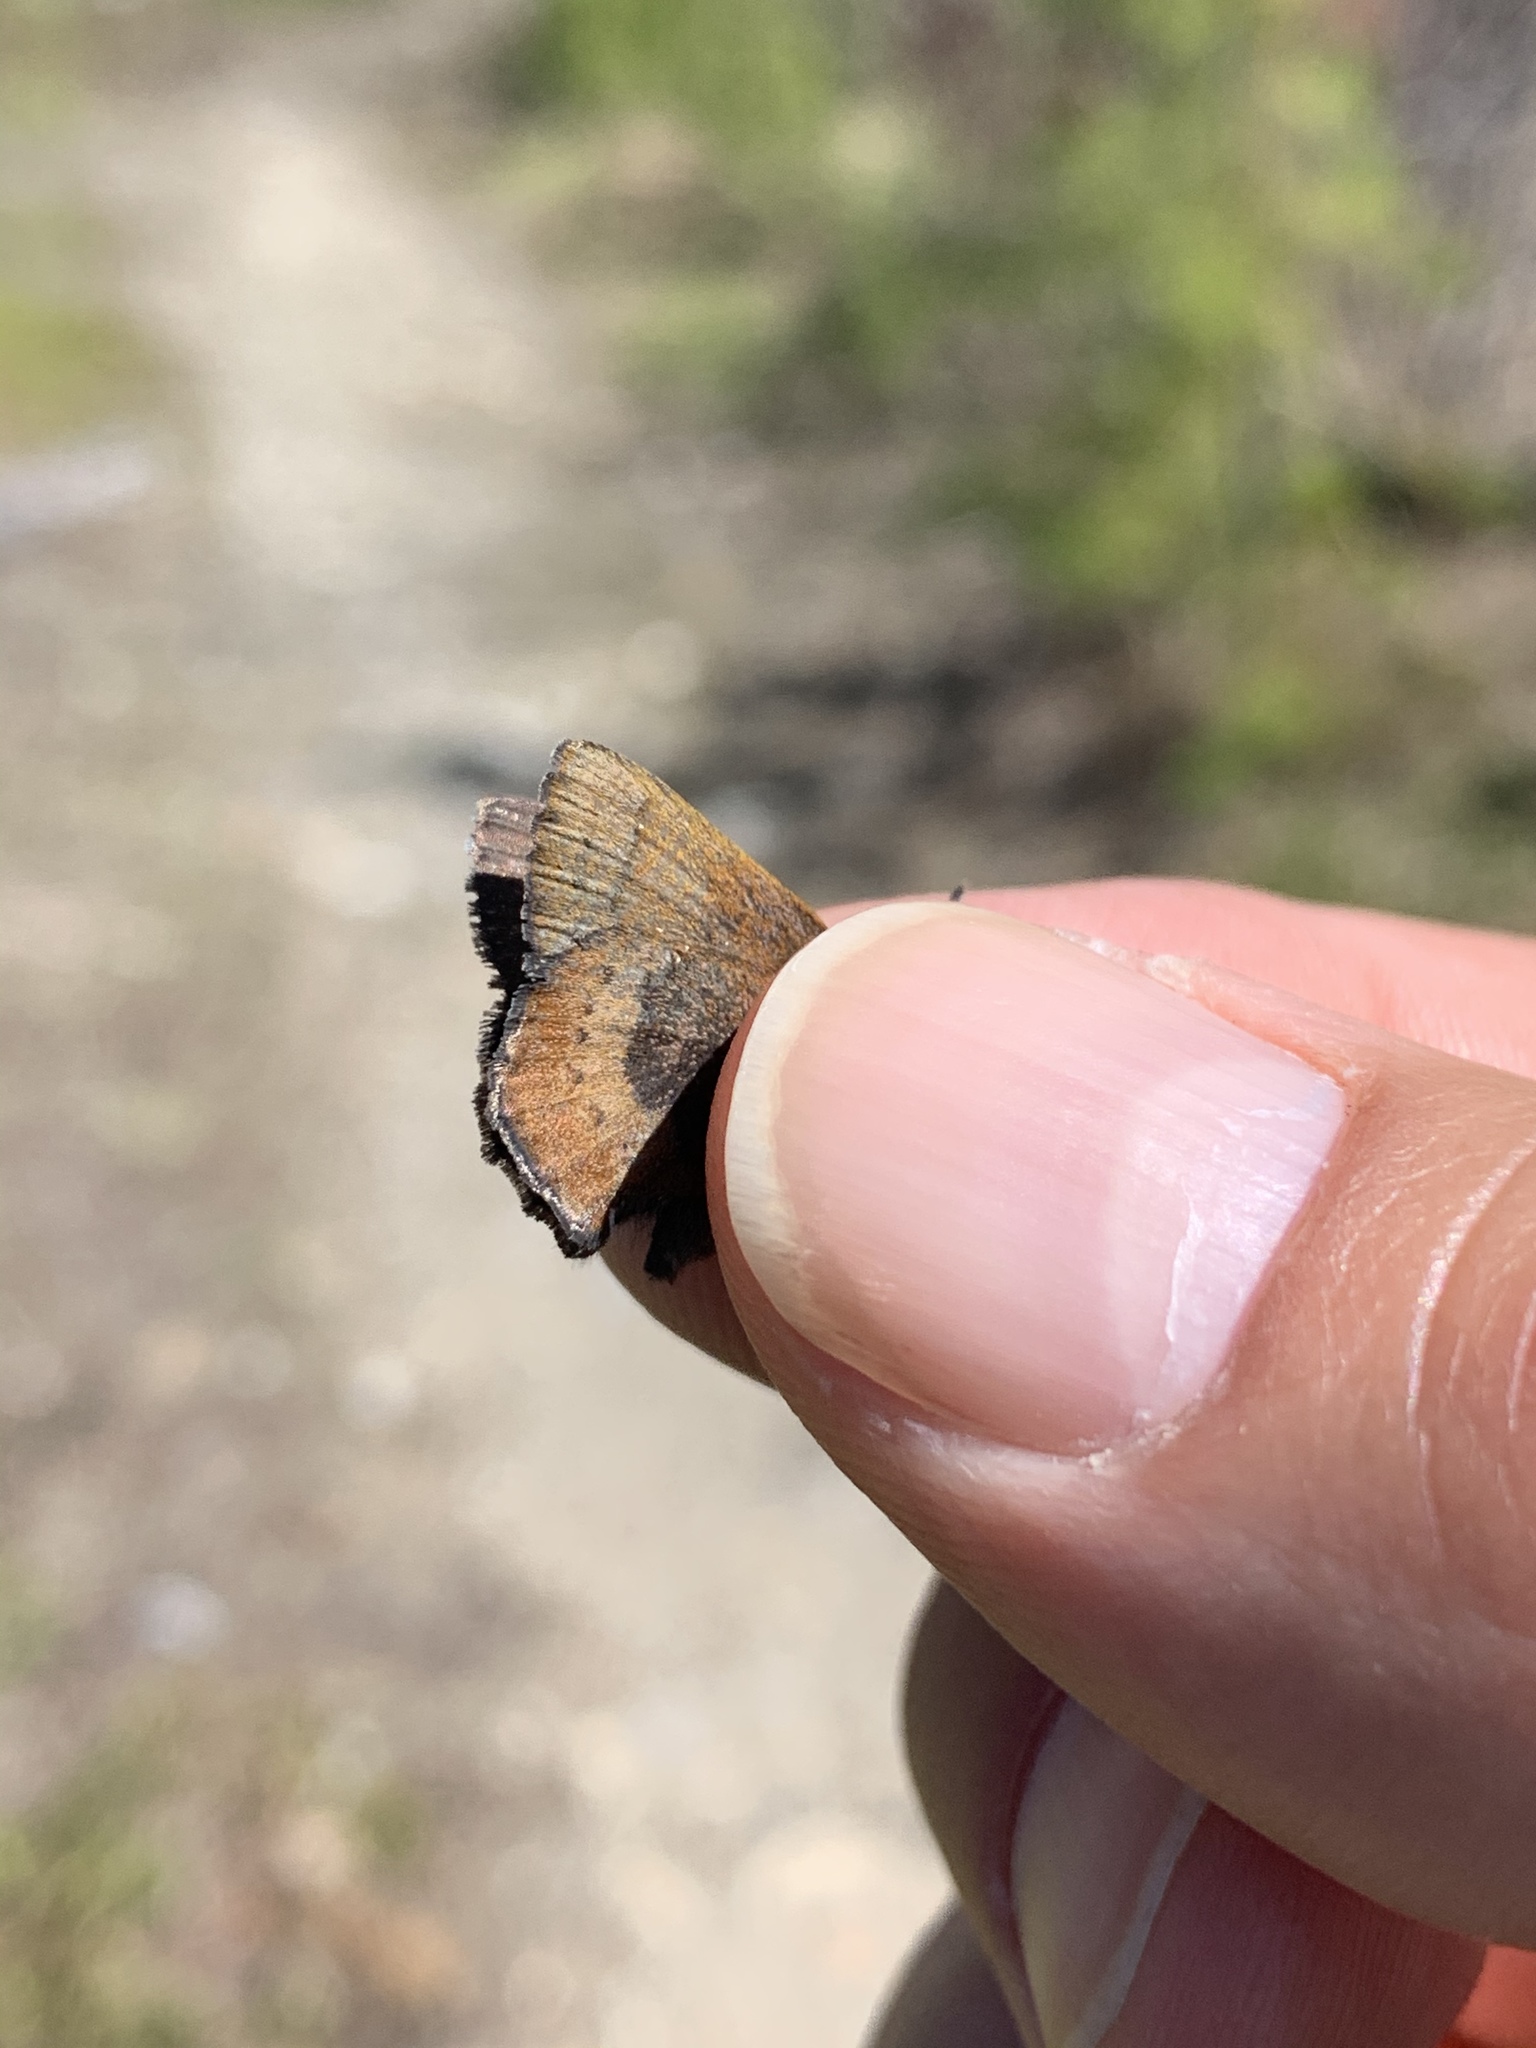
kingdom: Animalia
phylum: Arthropoda
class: Insecta
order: Lepidoptera
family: Lycaenidae
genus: Incisalia
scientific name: Incisalia irioides
